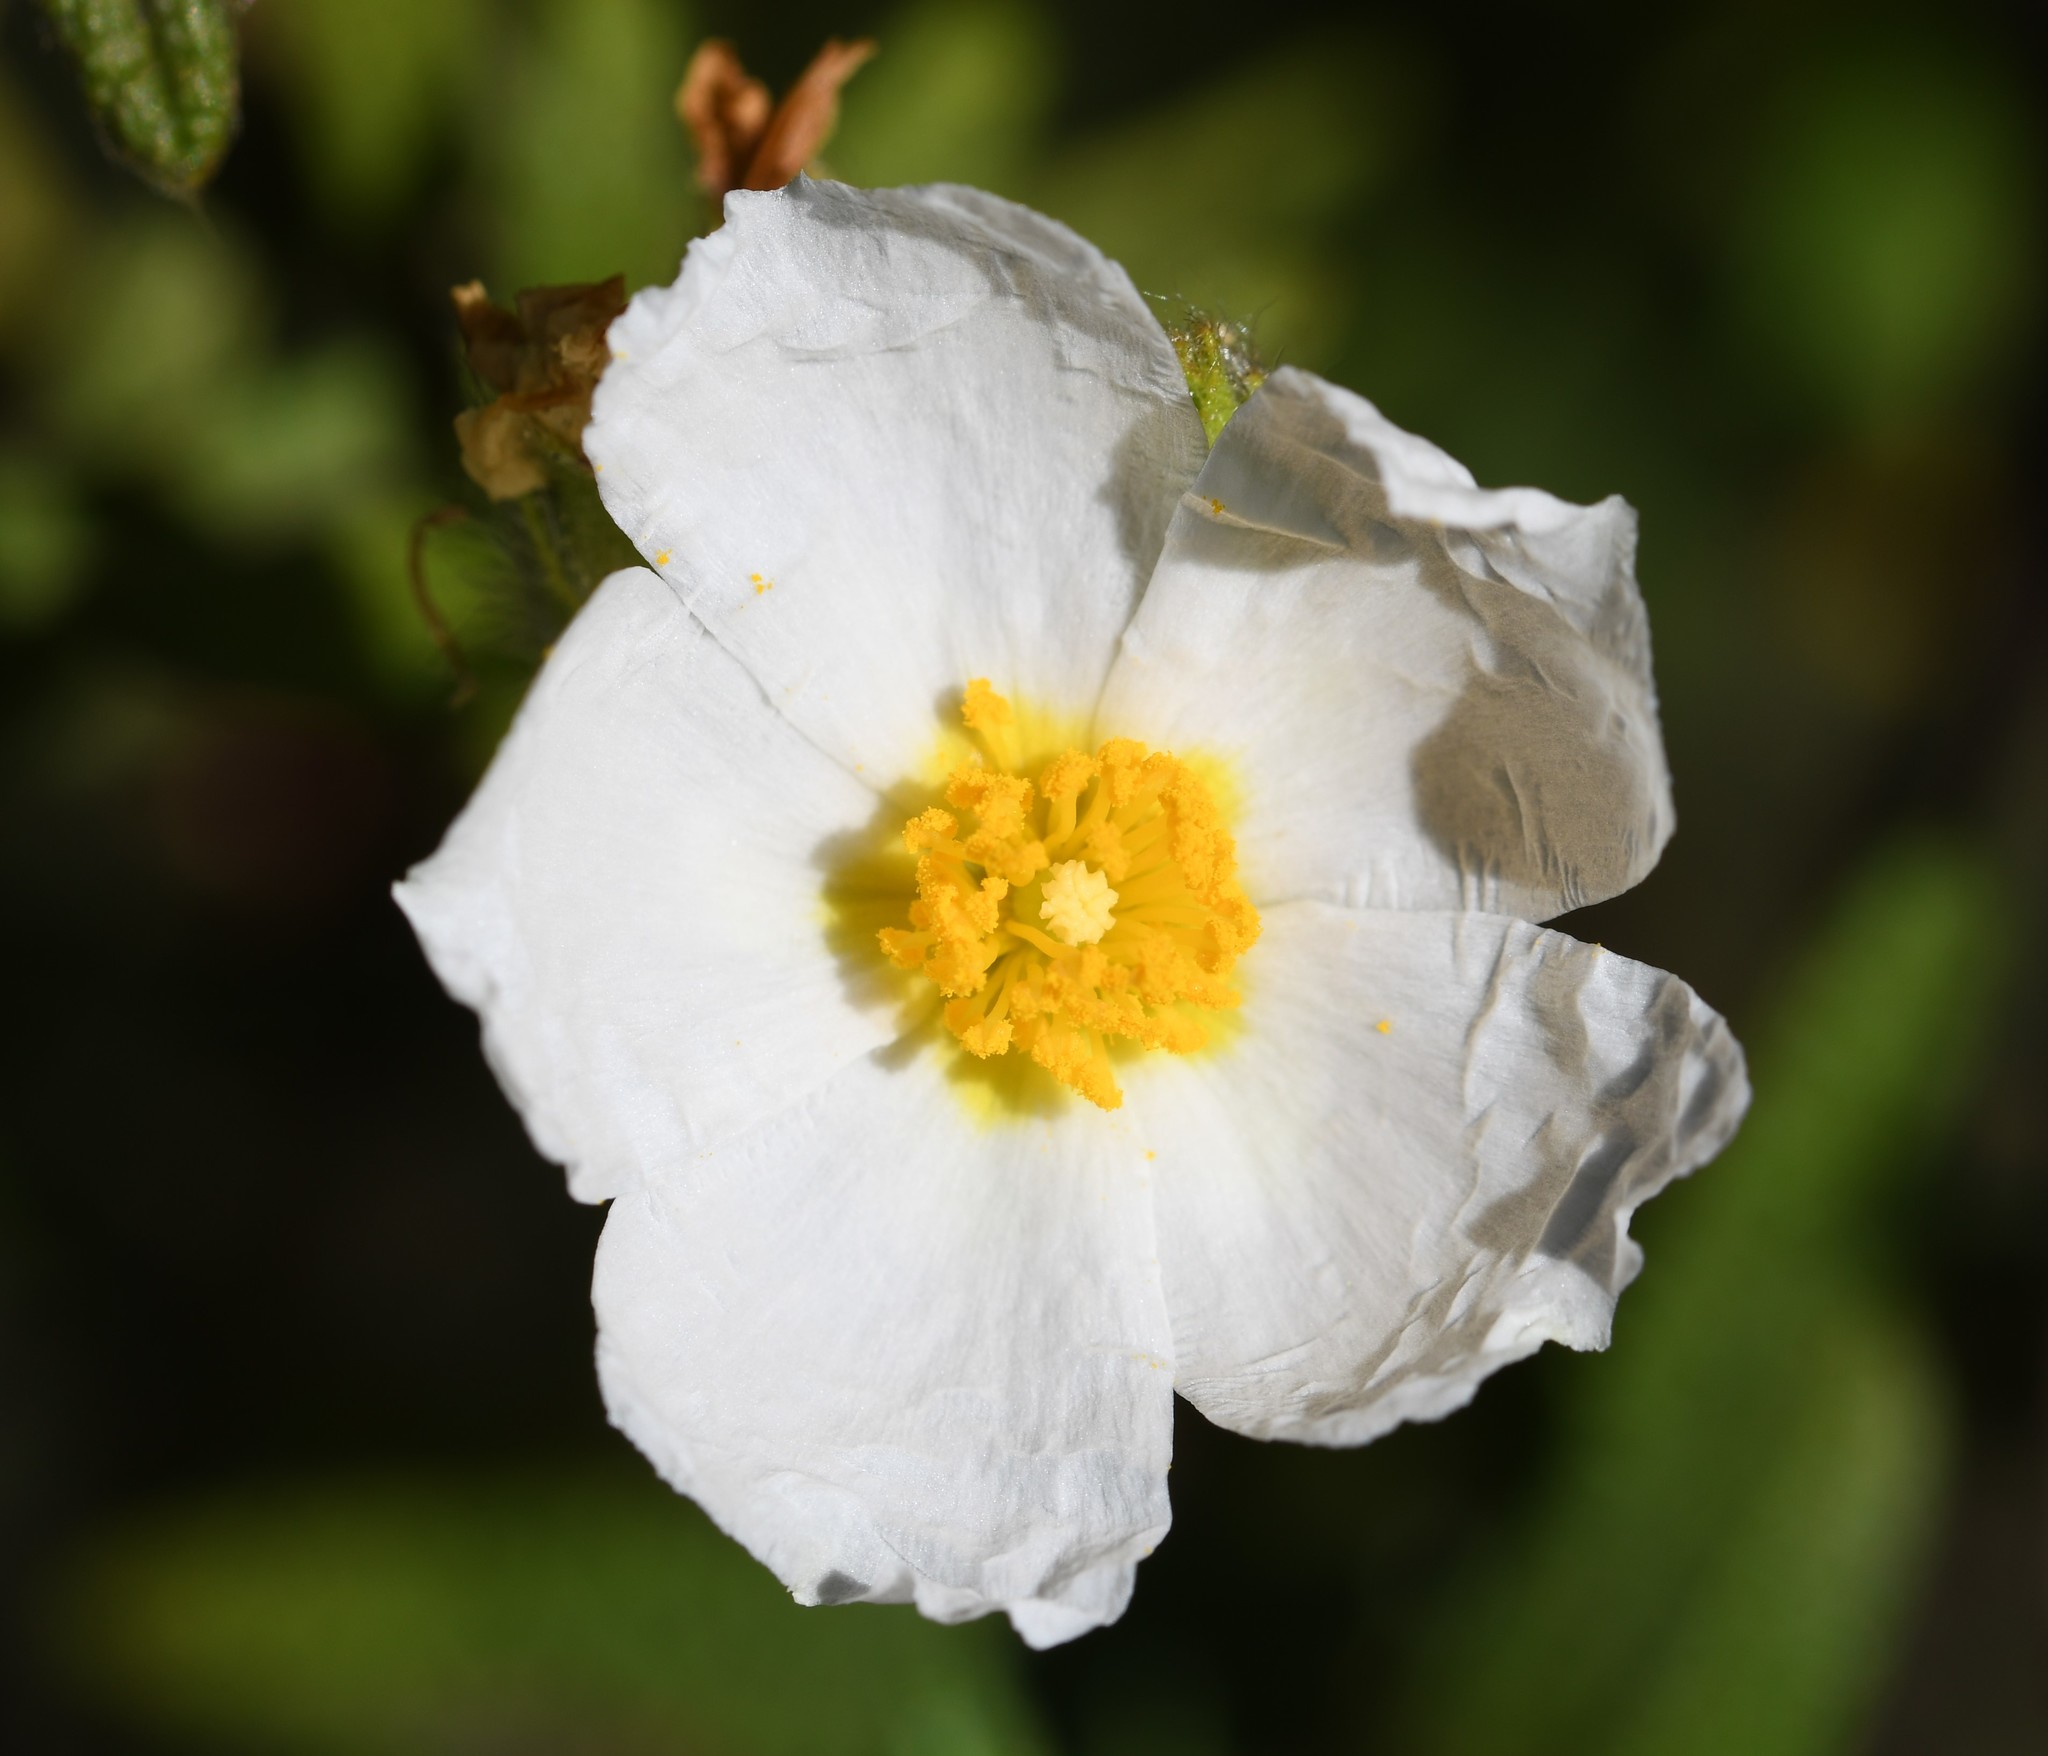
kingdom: Plantae
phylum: Tracheophyta
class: Magnoliopsida
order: Malvales
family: Cistaceae
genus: Cistus
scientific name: Cistus monspeliensis
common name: Montpelier cistus
